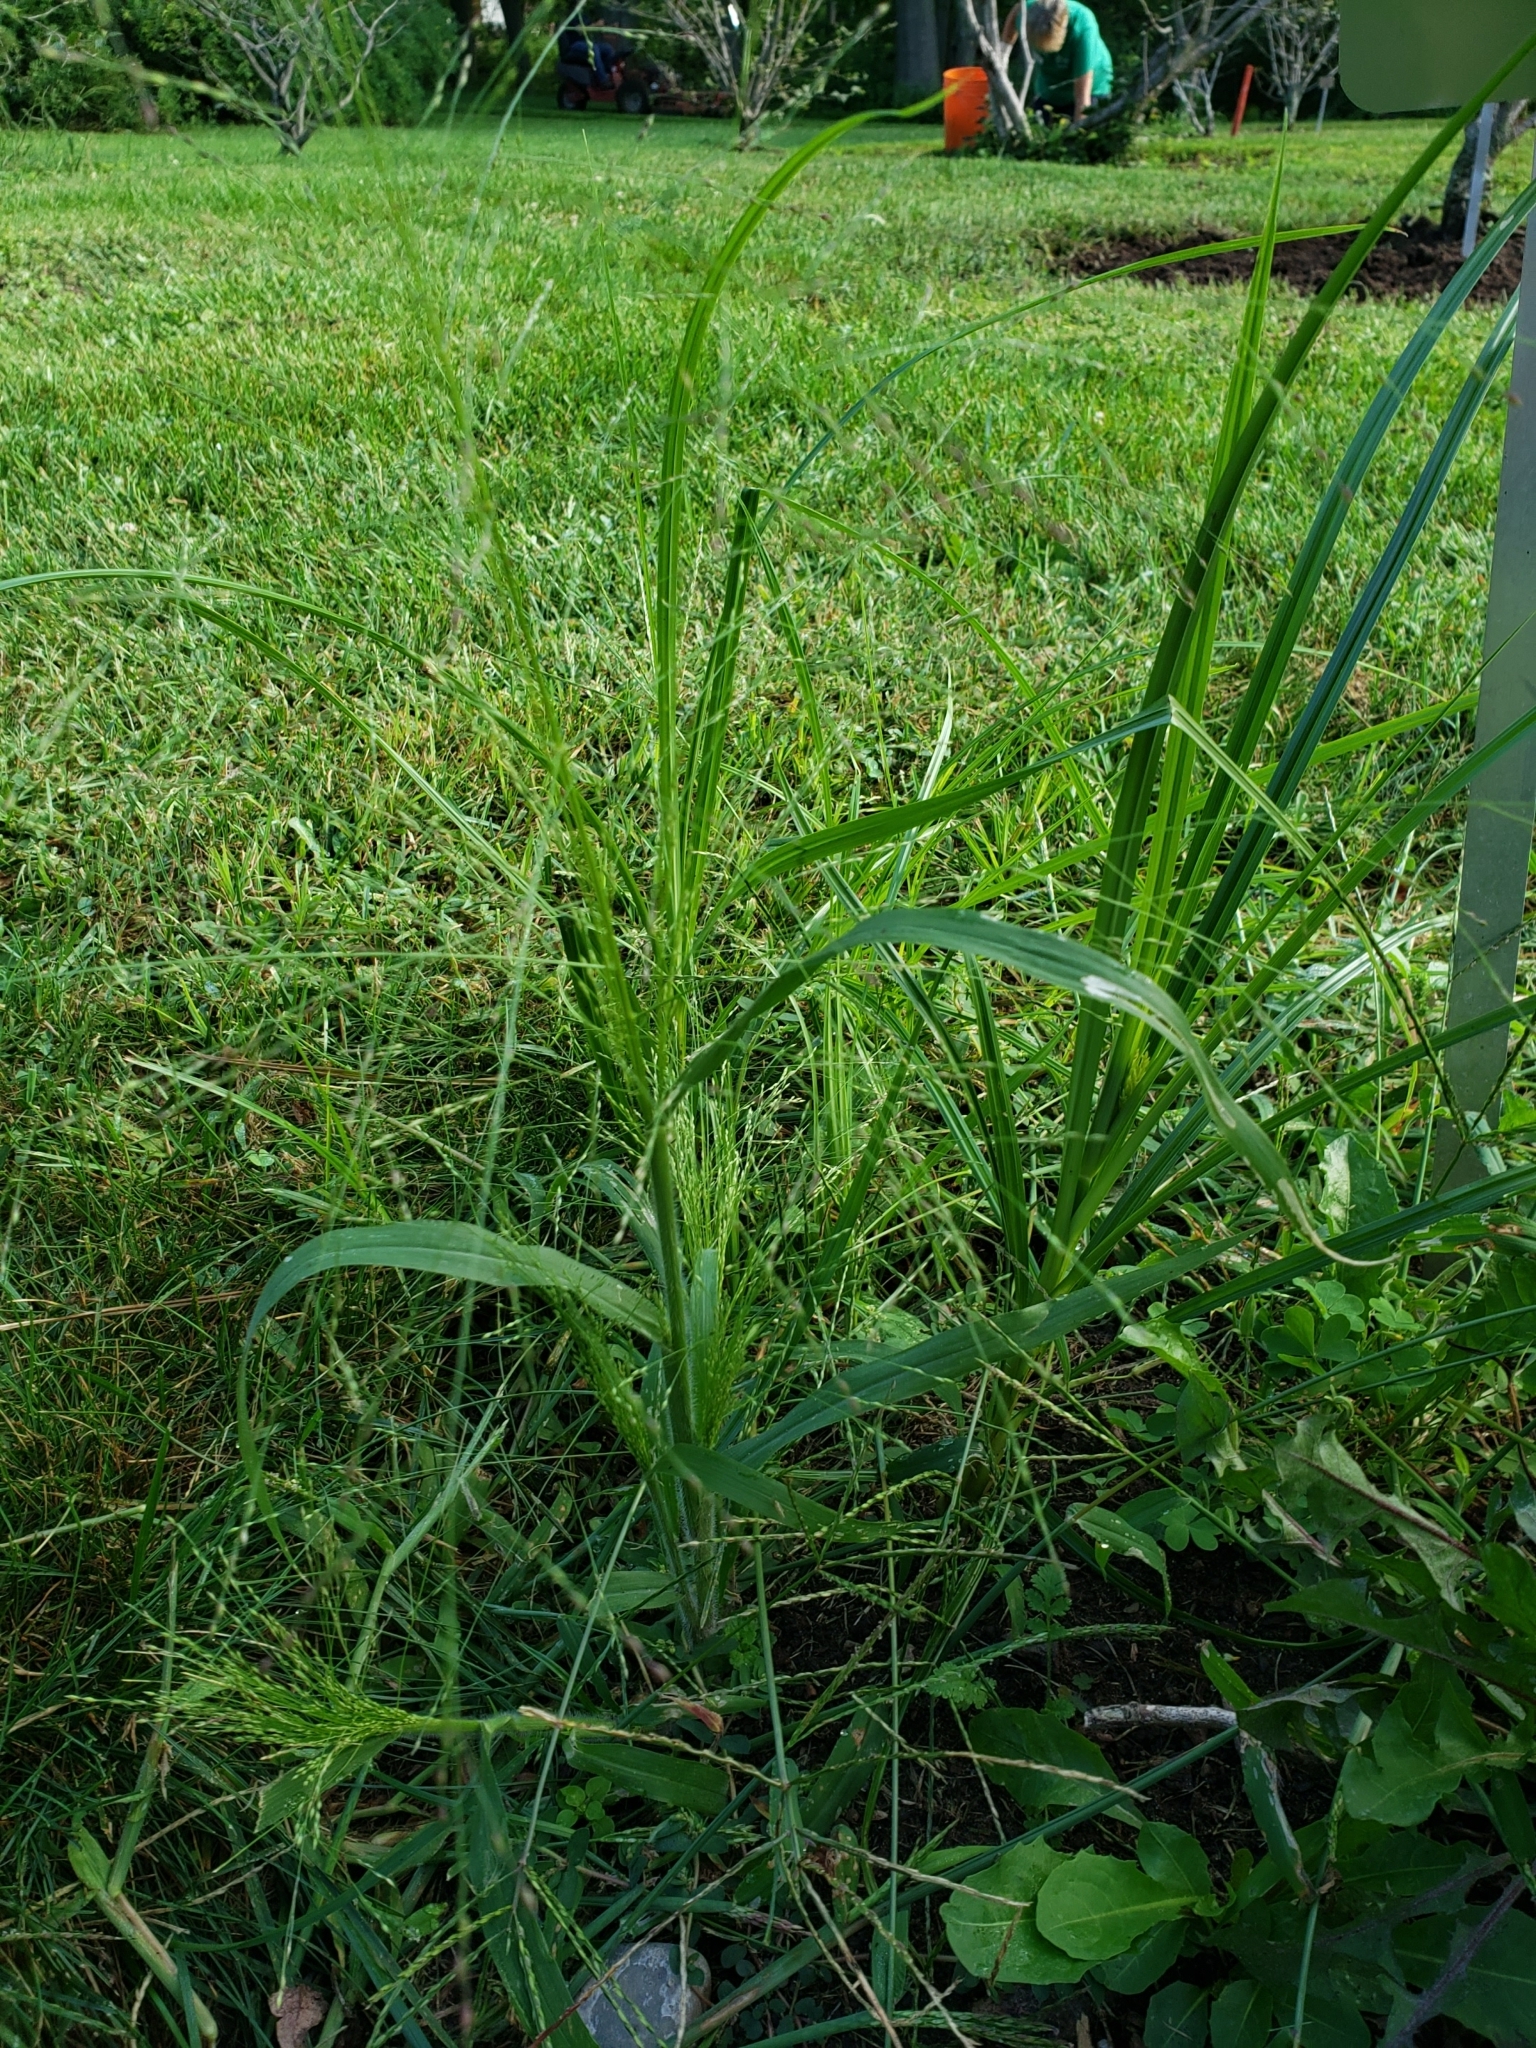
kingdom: Plantae
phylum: Tracheophyta
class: Liliopsida
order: Poales
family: Poaceae
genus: Panicum
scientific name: Panicum dichotomiflorum
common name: Autumn millet
